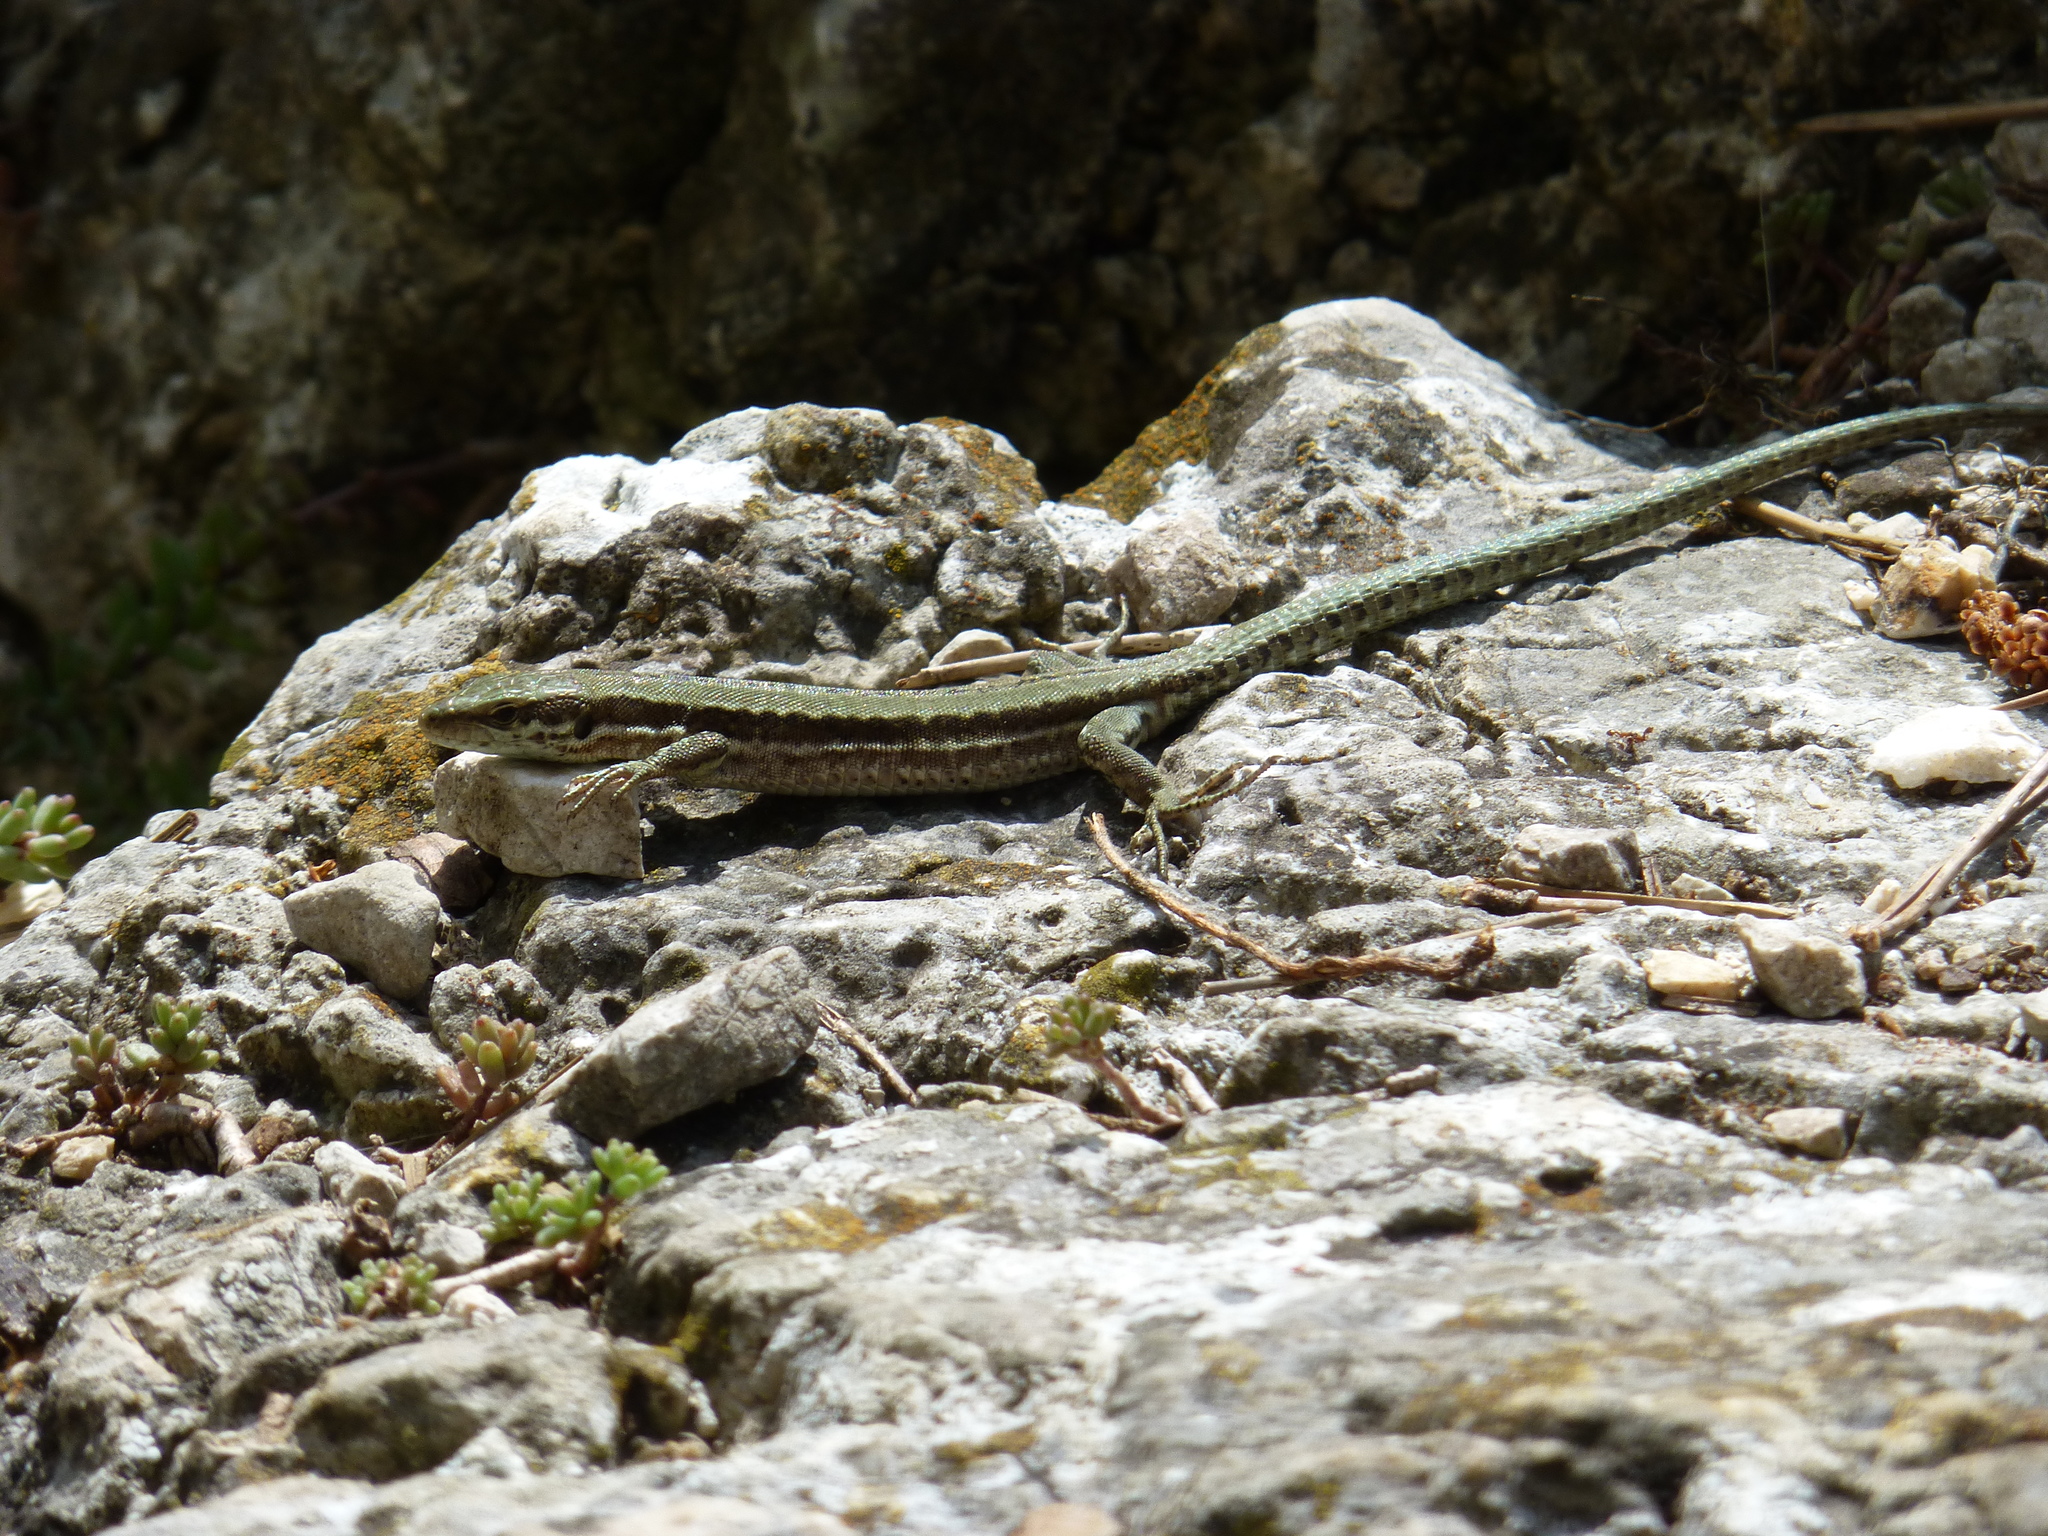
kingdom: Animalia
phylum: Chordata
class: Squamata
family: Lacertidae
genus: Podarcis
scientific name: Podarcis muralis
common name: Common wall lizard
